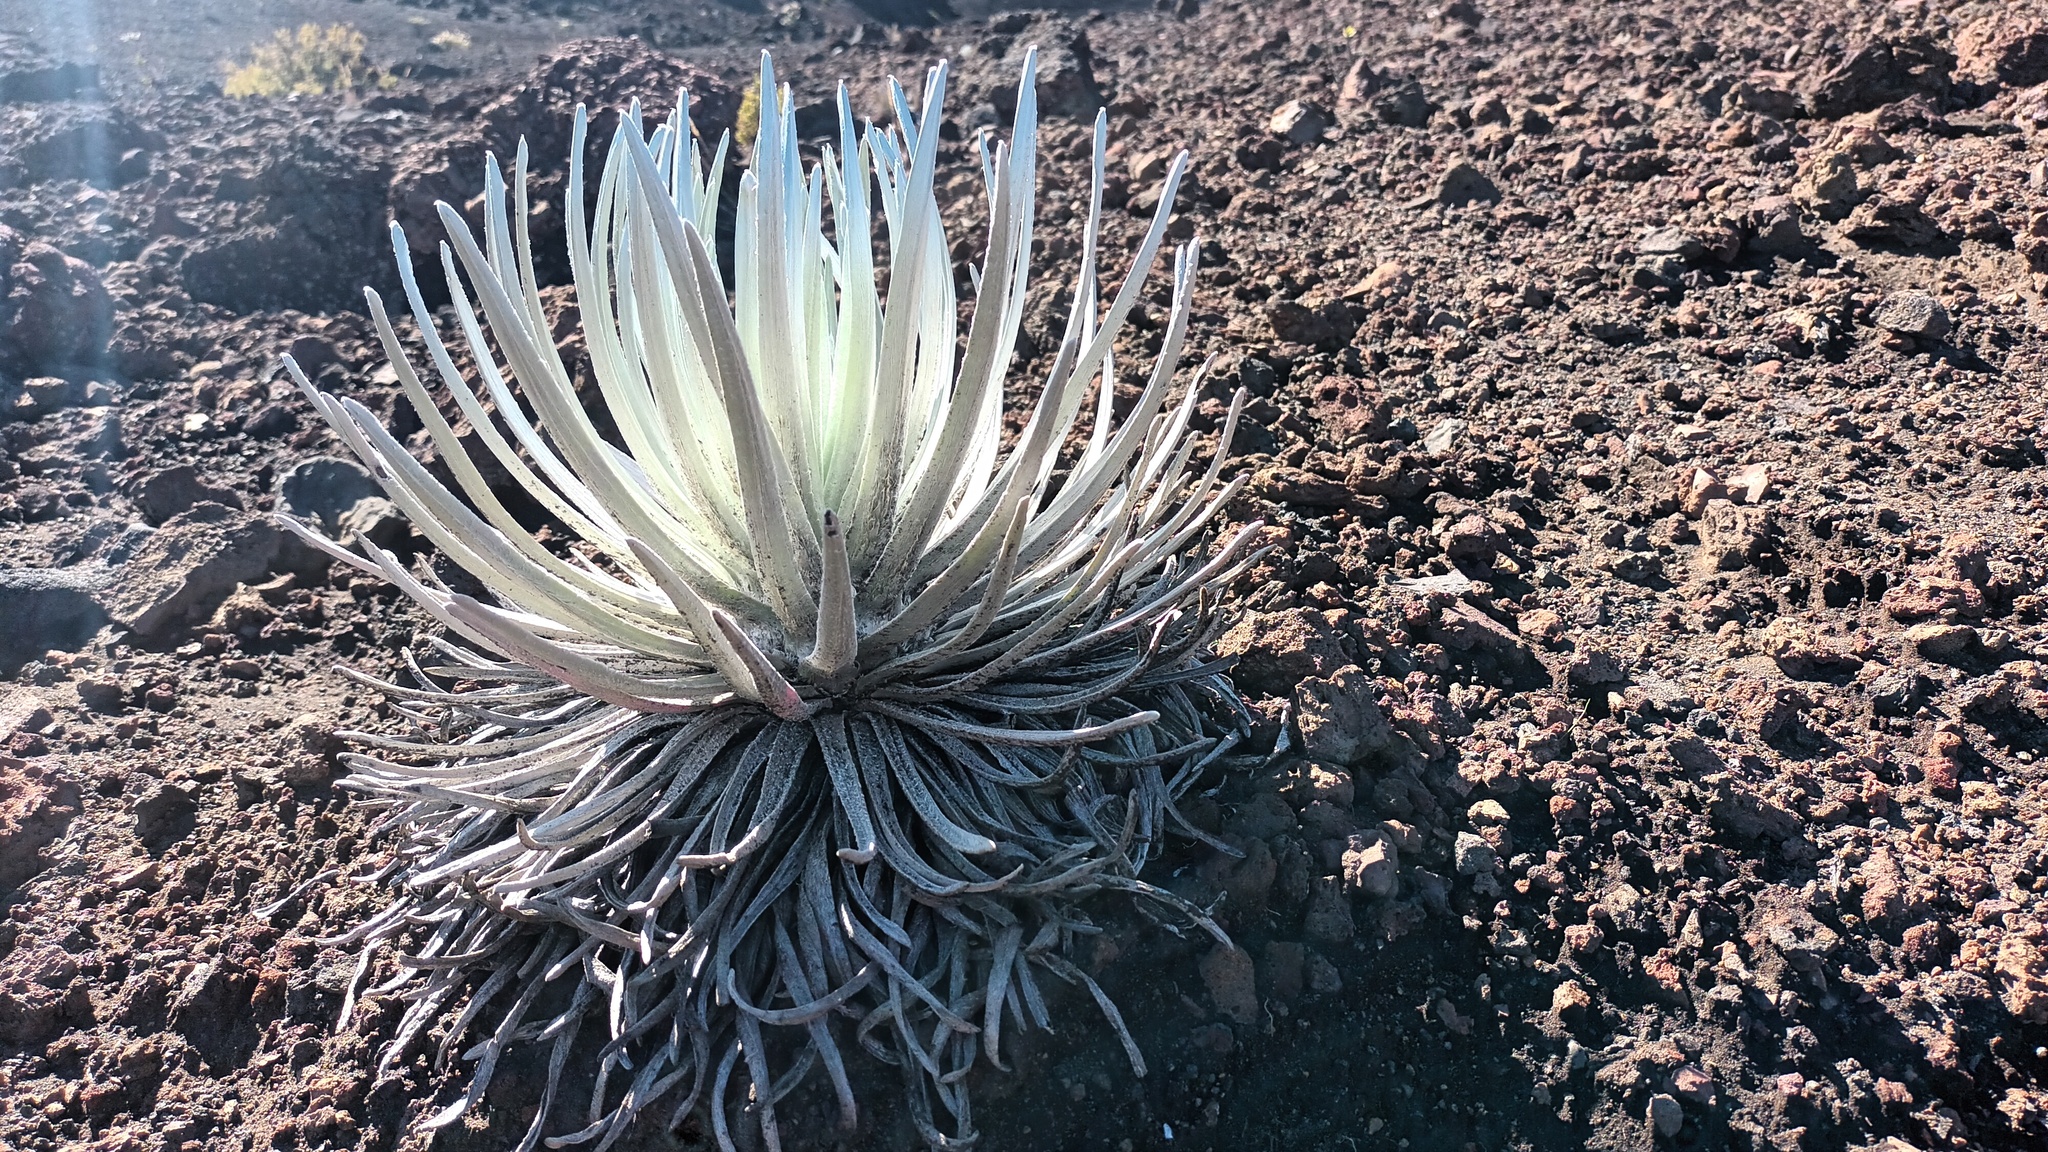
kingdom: Plantae
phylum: Tracheophyta
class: Magnoliopsida
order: Asterales
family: Asteraceae
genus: Argyroxiphium
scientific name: Argyroxiphium sandwicense
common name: Silversword
